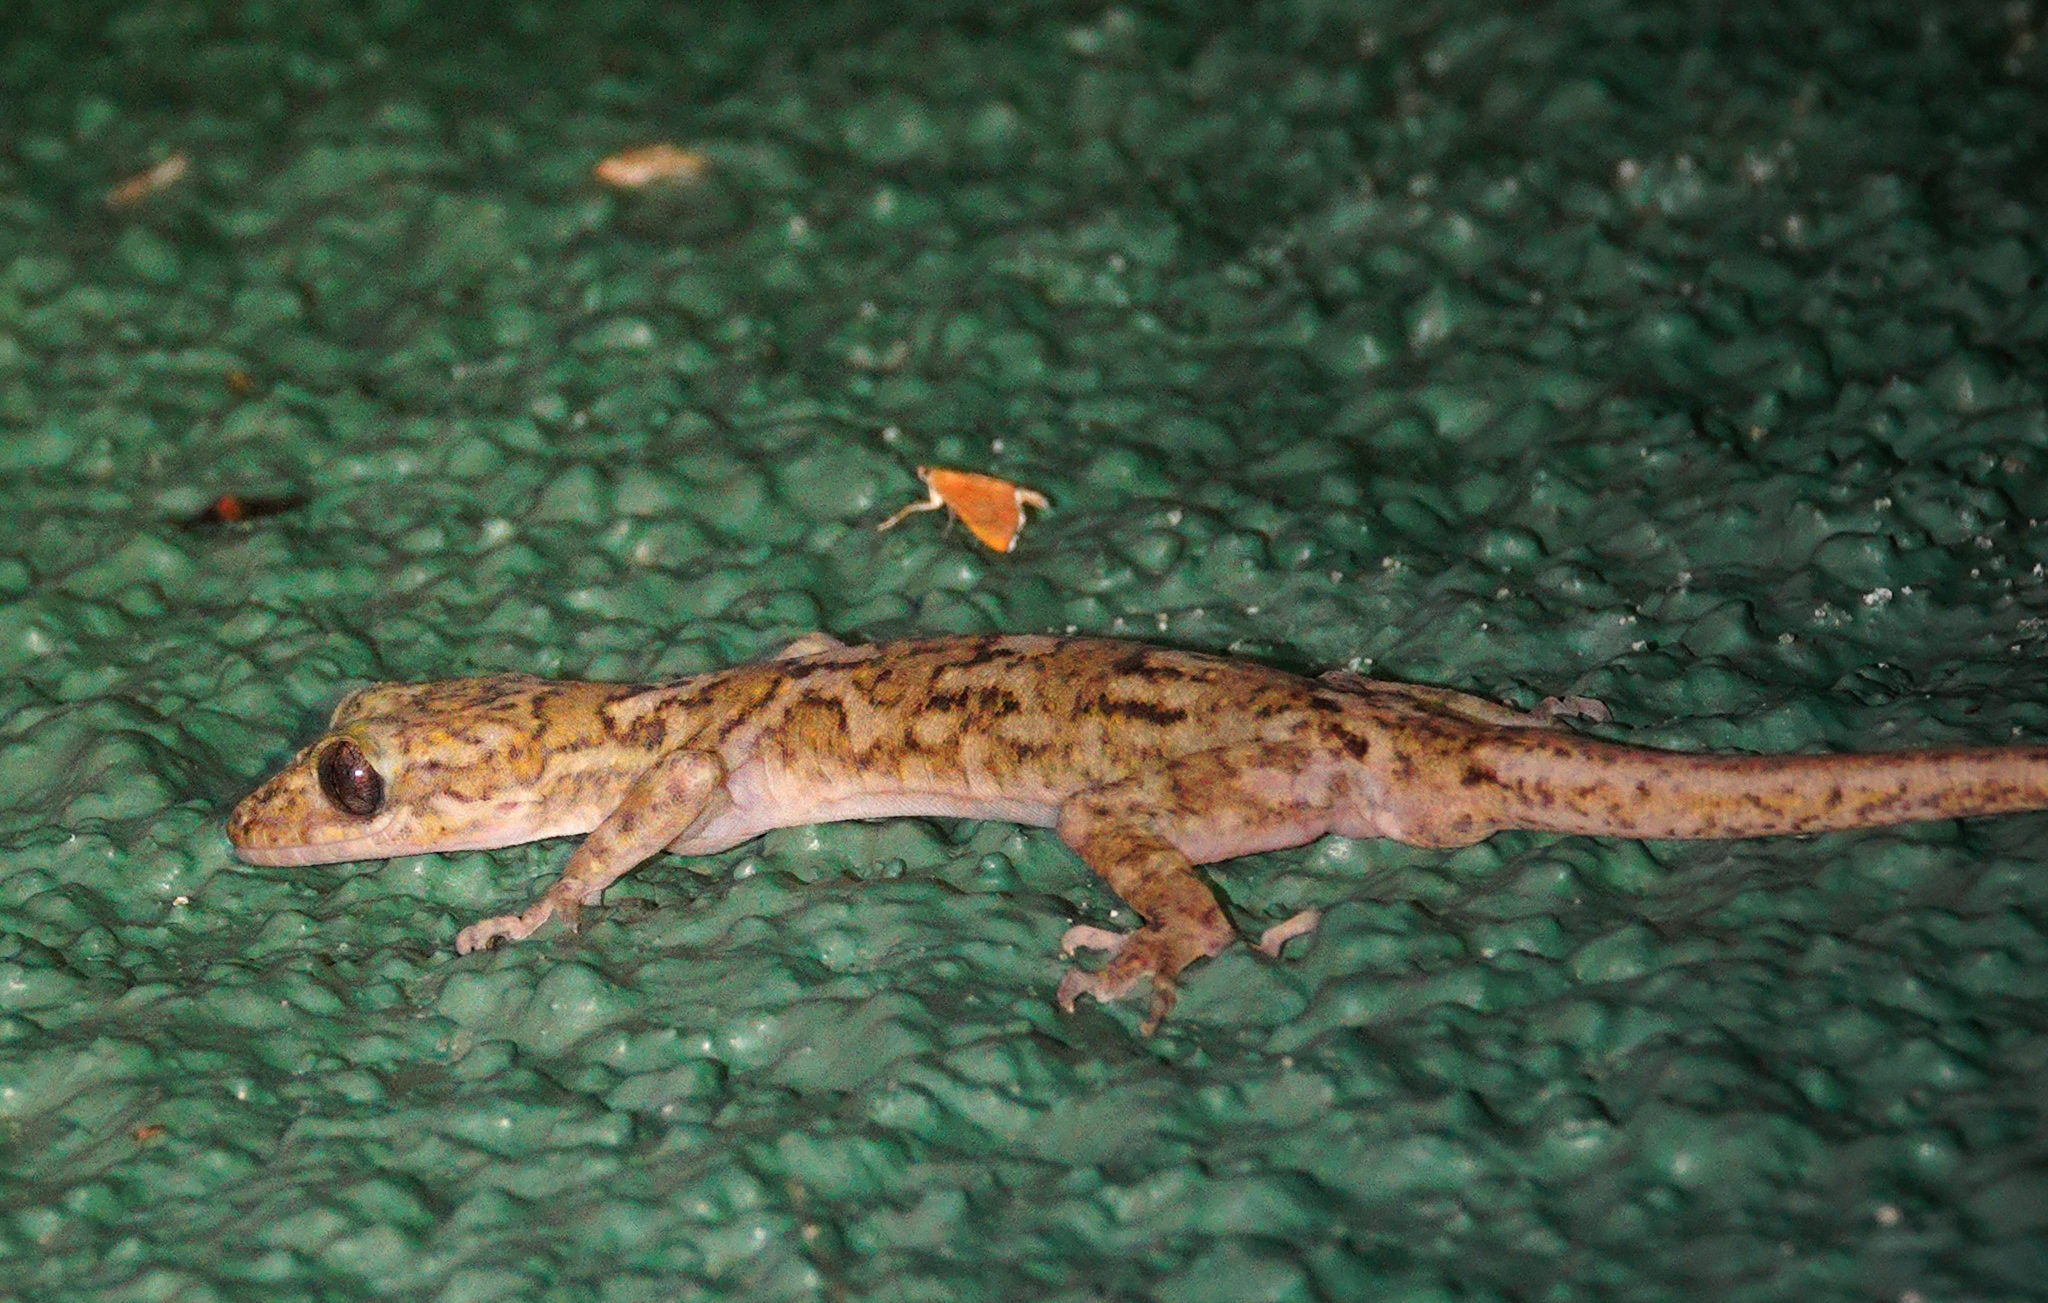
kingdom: Animalia
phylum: Chordata
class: Squamata
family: Gekkonidae
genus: Cyrtodactylus
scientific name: Cyrtodactylus soba
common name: Dumbara bent toed gecko
